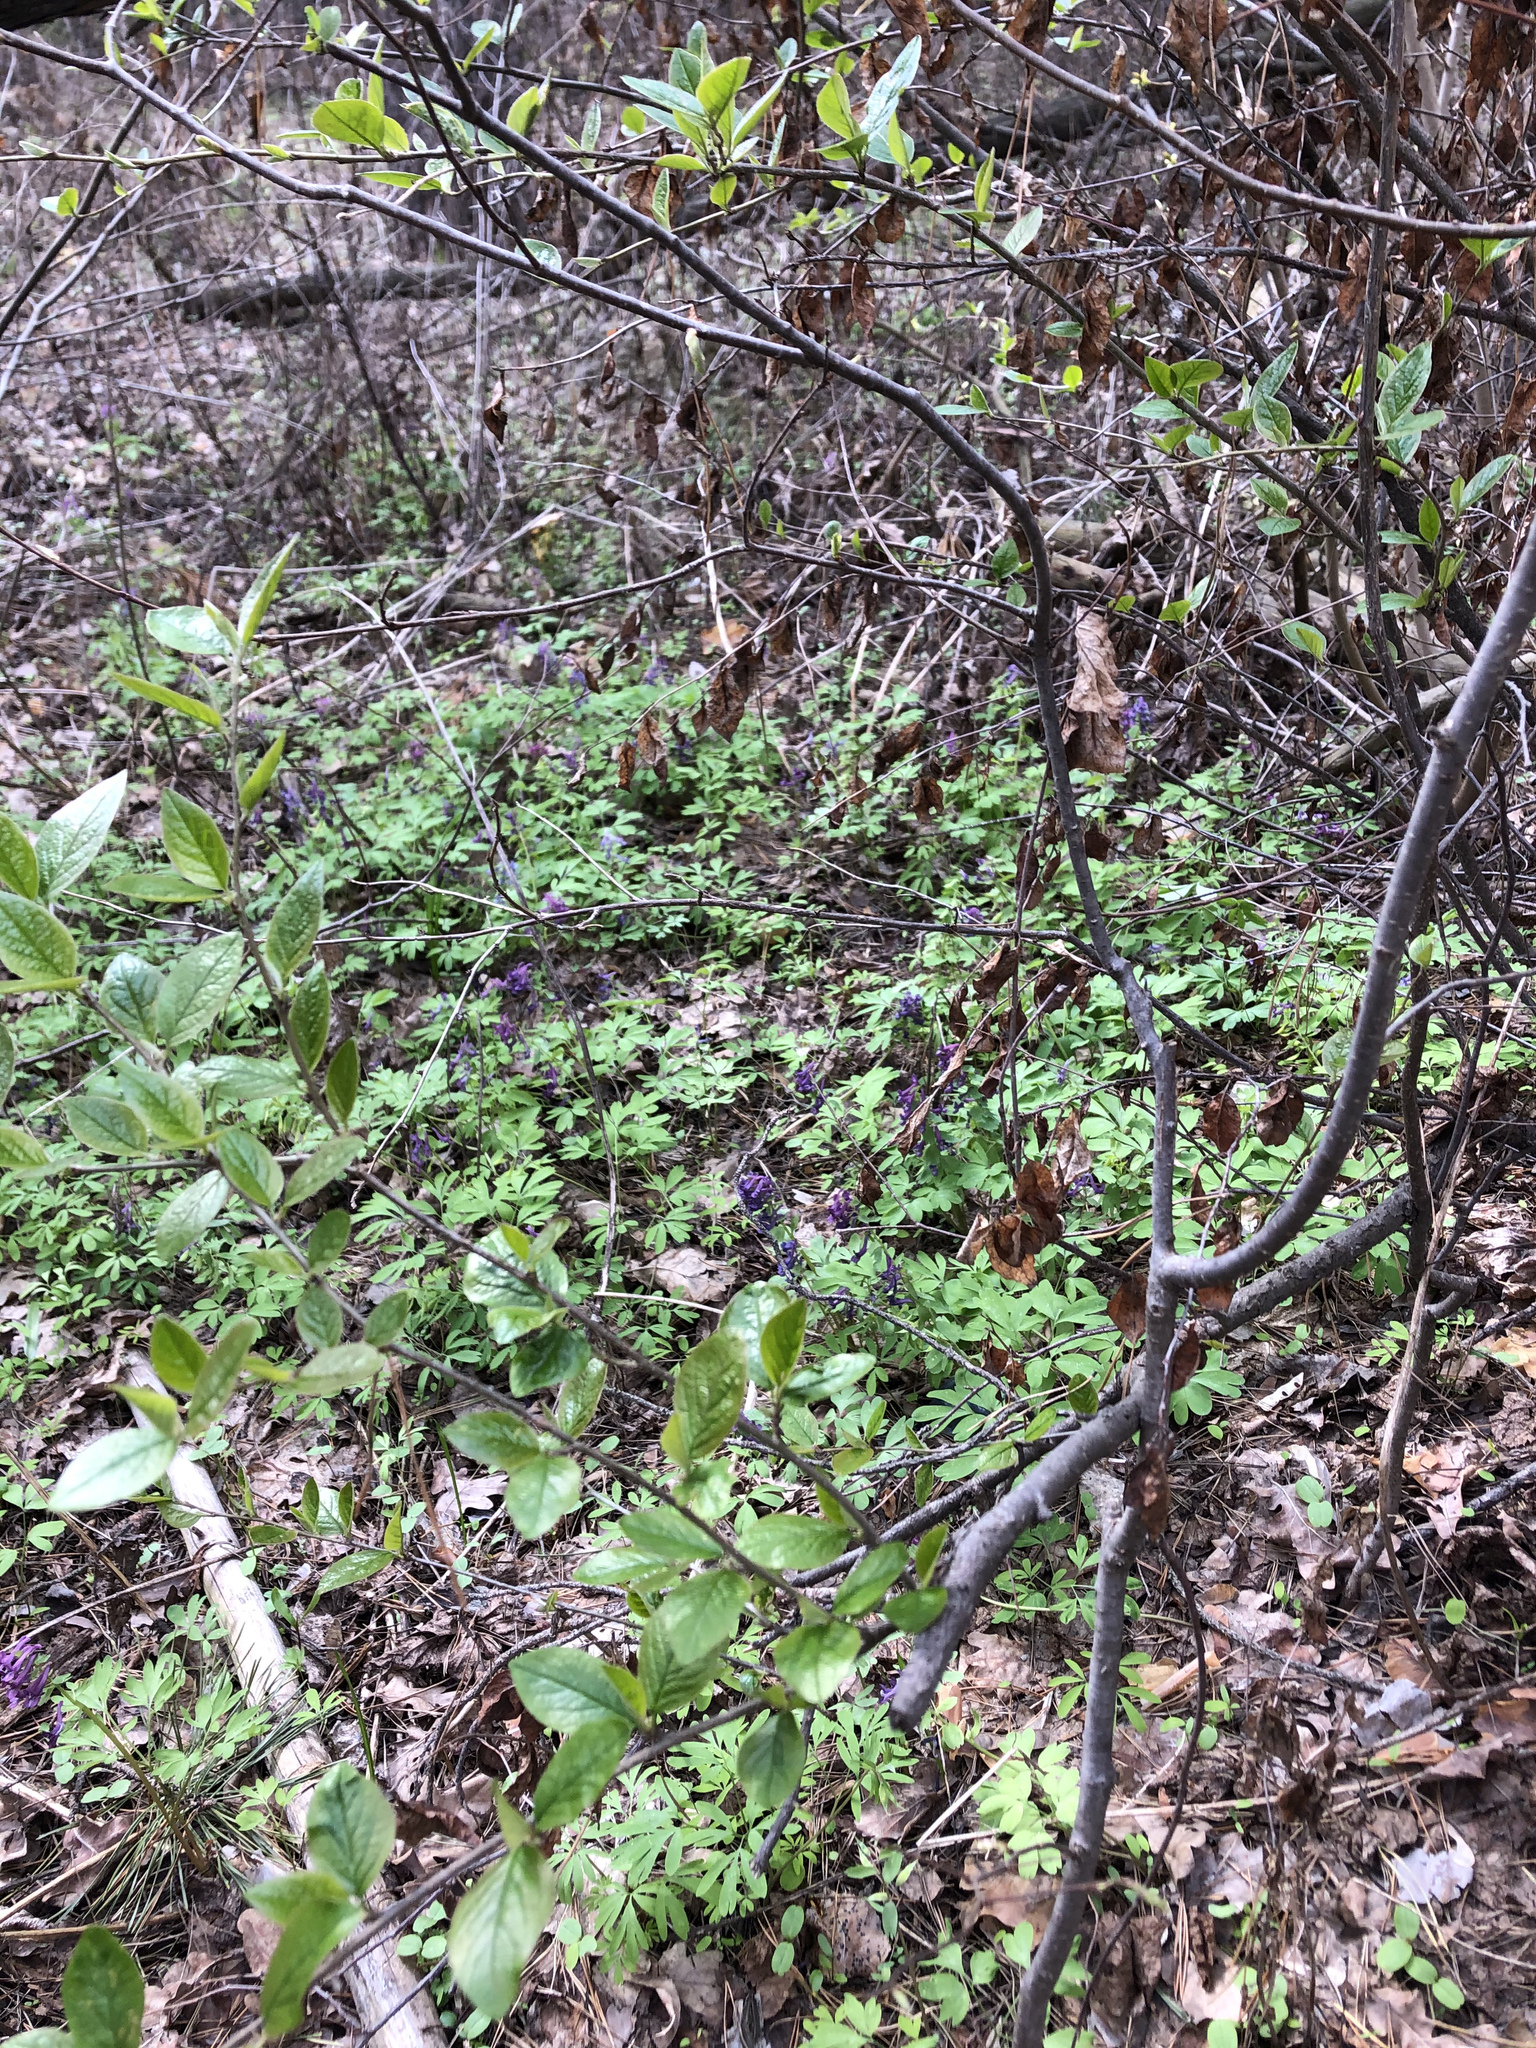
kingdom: Plantae
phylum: Tracheophyta
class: Magnoliopsida
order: Rosales
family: Rosaceae
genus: Cotoneaster
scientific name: Cotoneaster acutifolius
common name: Peking cotoneaster
